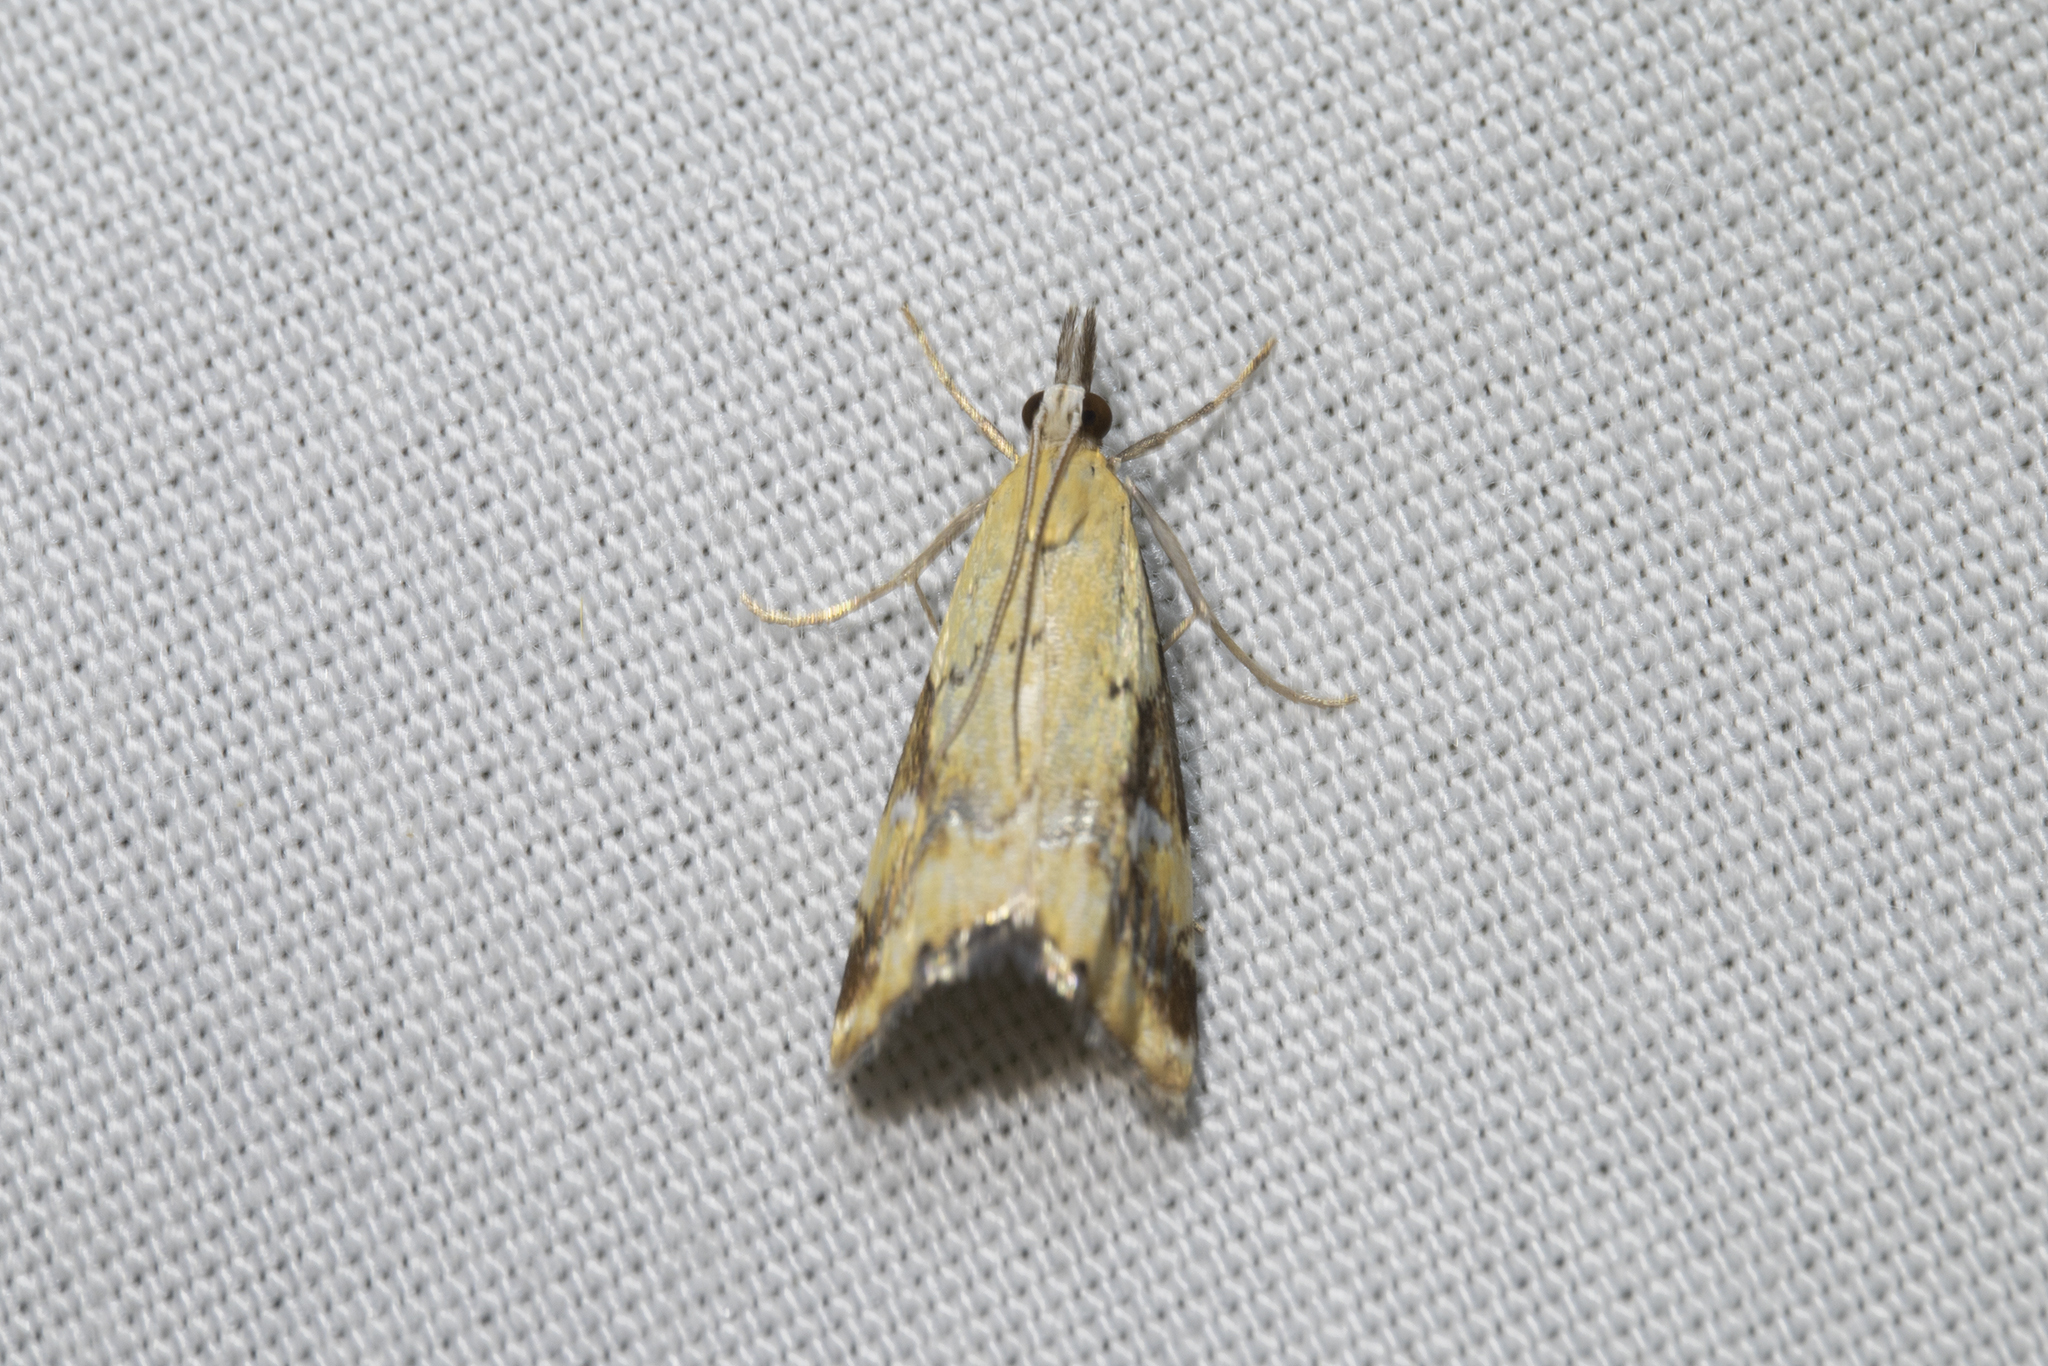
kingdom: Animalia
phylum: Arthropoda
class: Insecta
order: Lepidoptera
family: Crambidae
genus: Glaucocharis
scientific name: Glaucocharis lepidella
